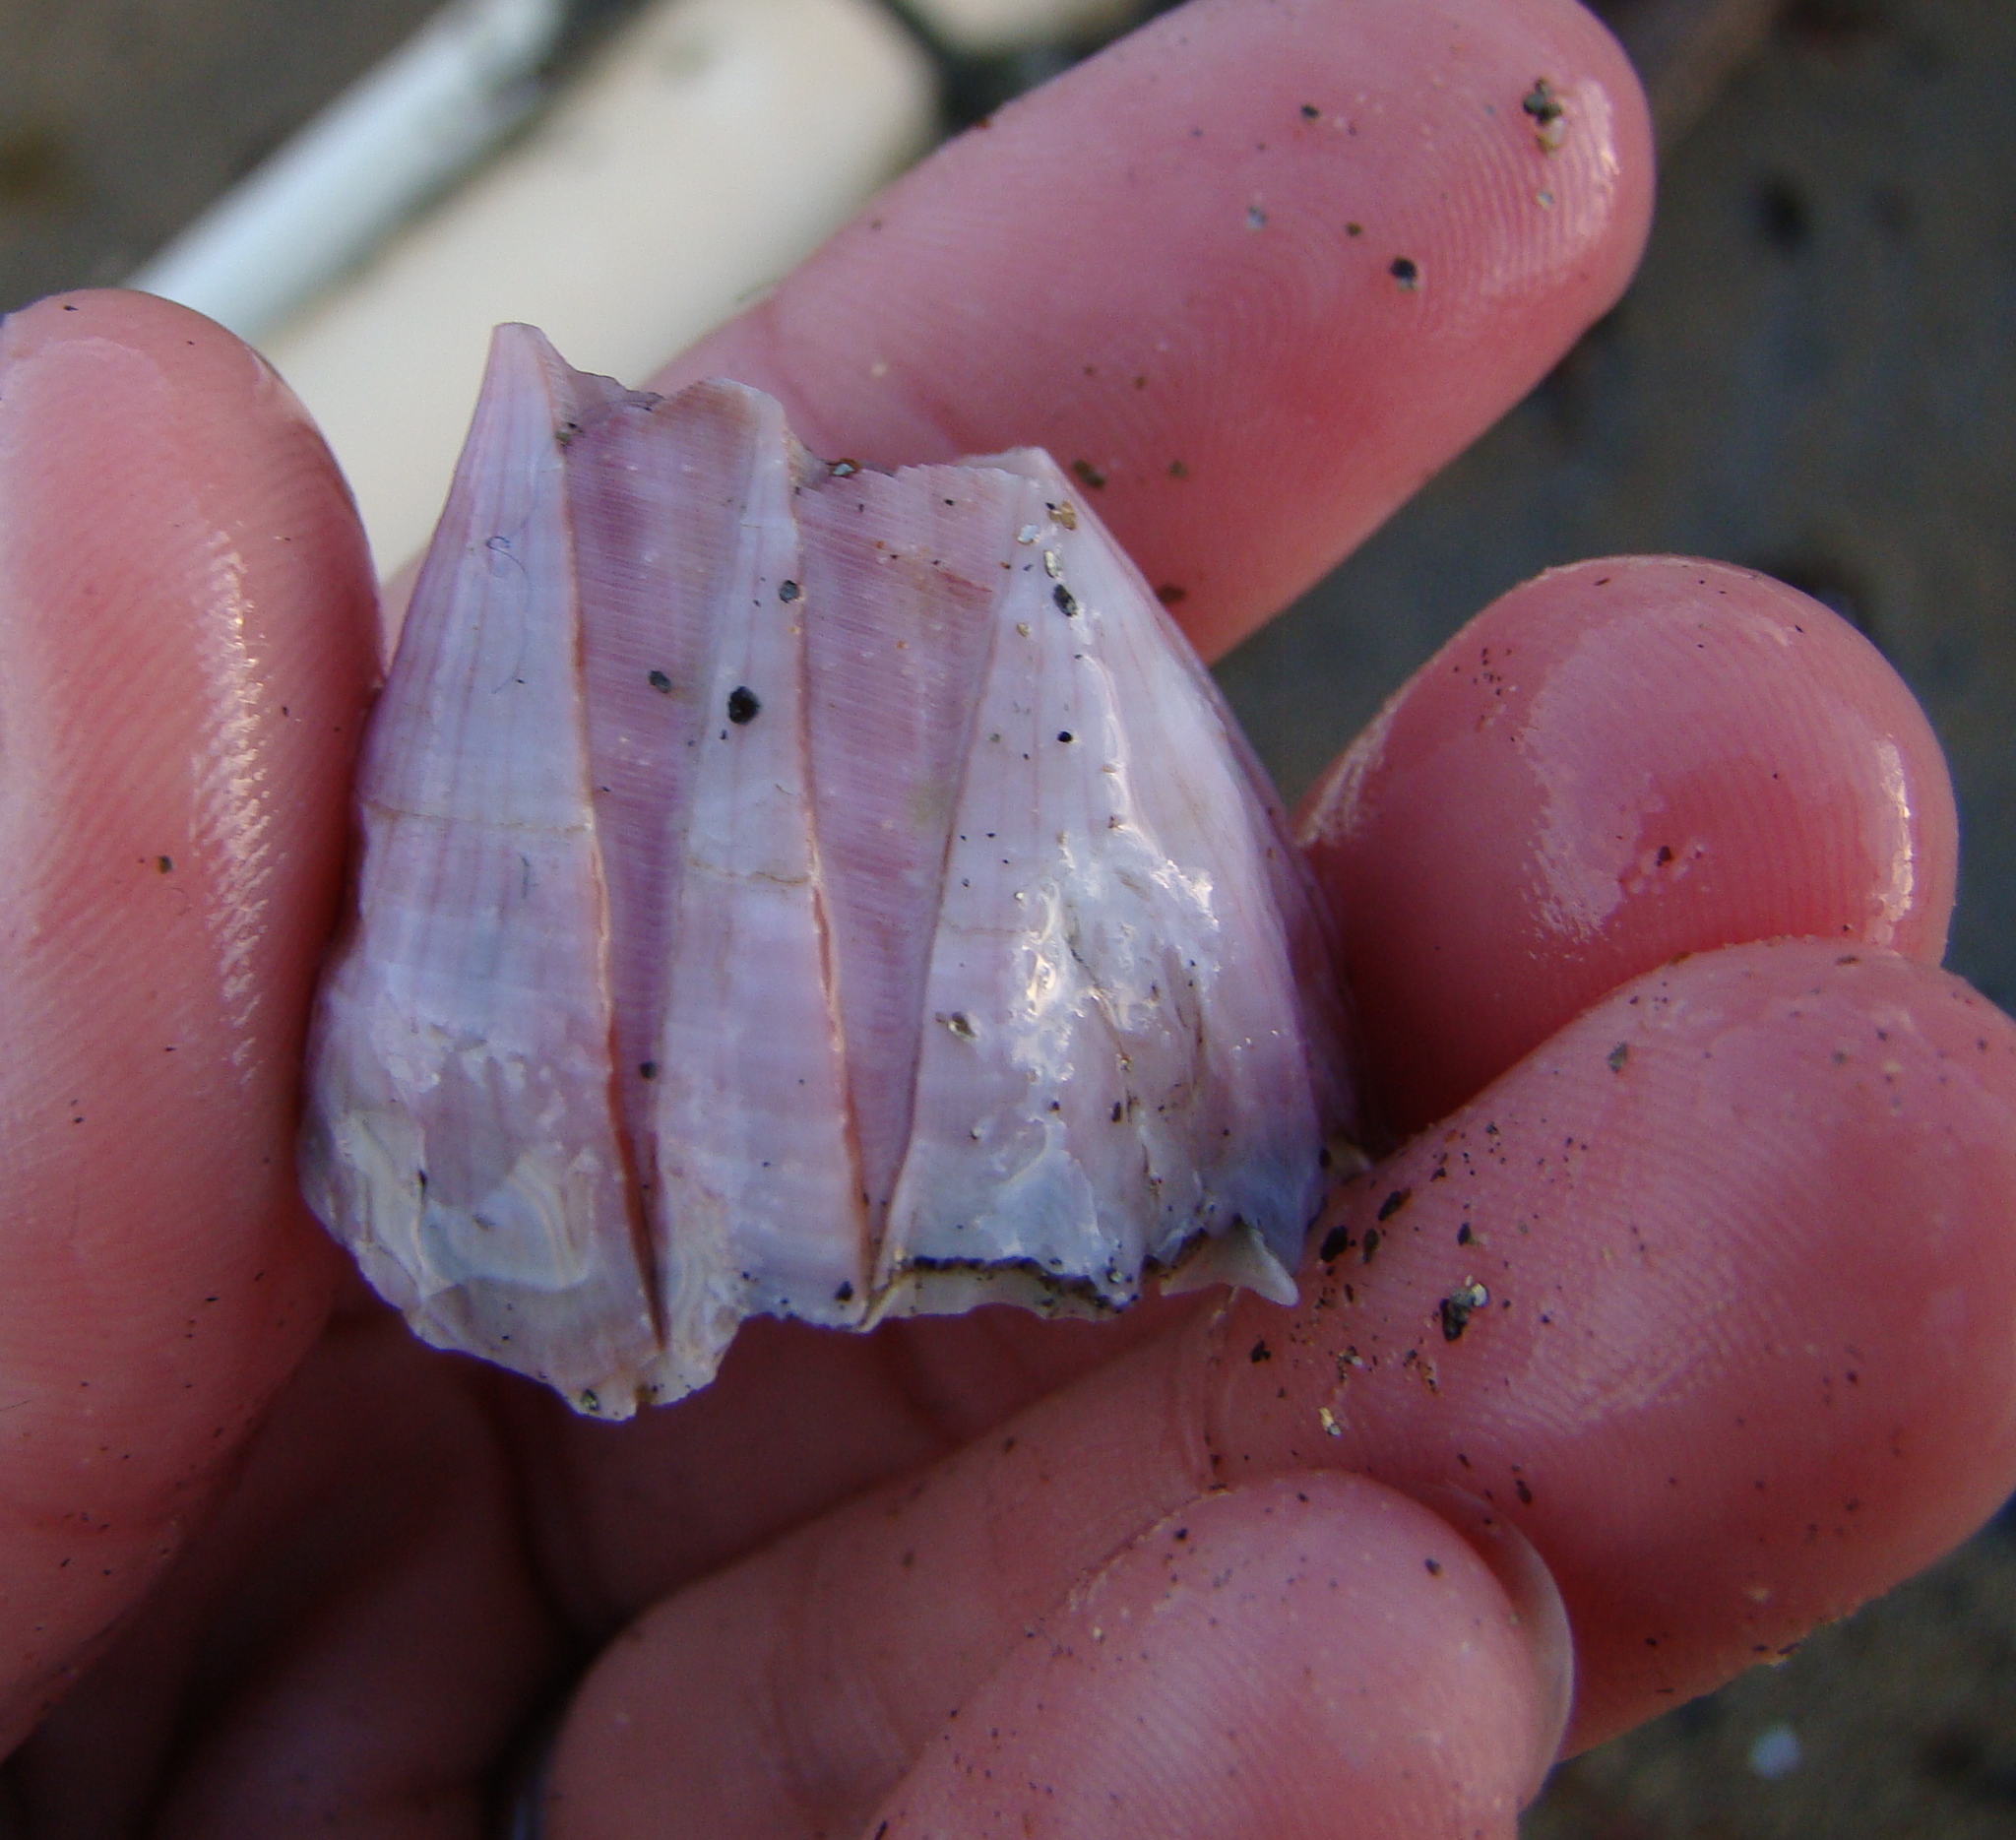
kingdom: Animalia
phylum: Arthropoda
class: Maxillopoda
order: Sessilia
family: Balanidae
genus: Notomegabalanus
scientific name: Notomegabalanus decorus
